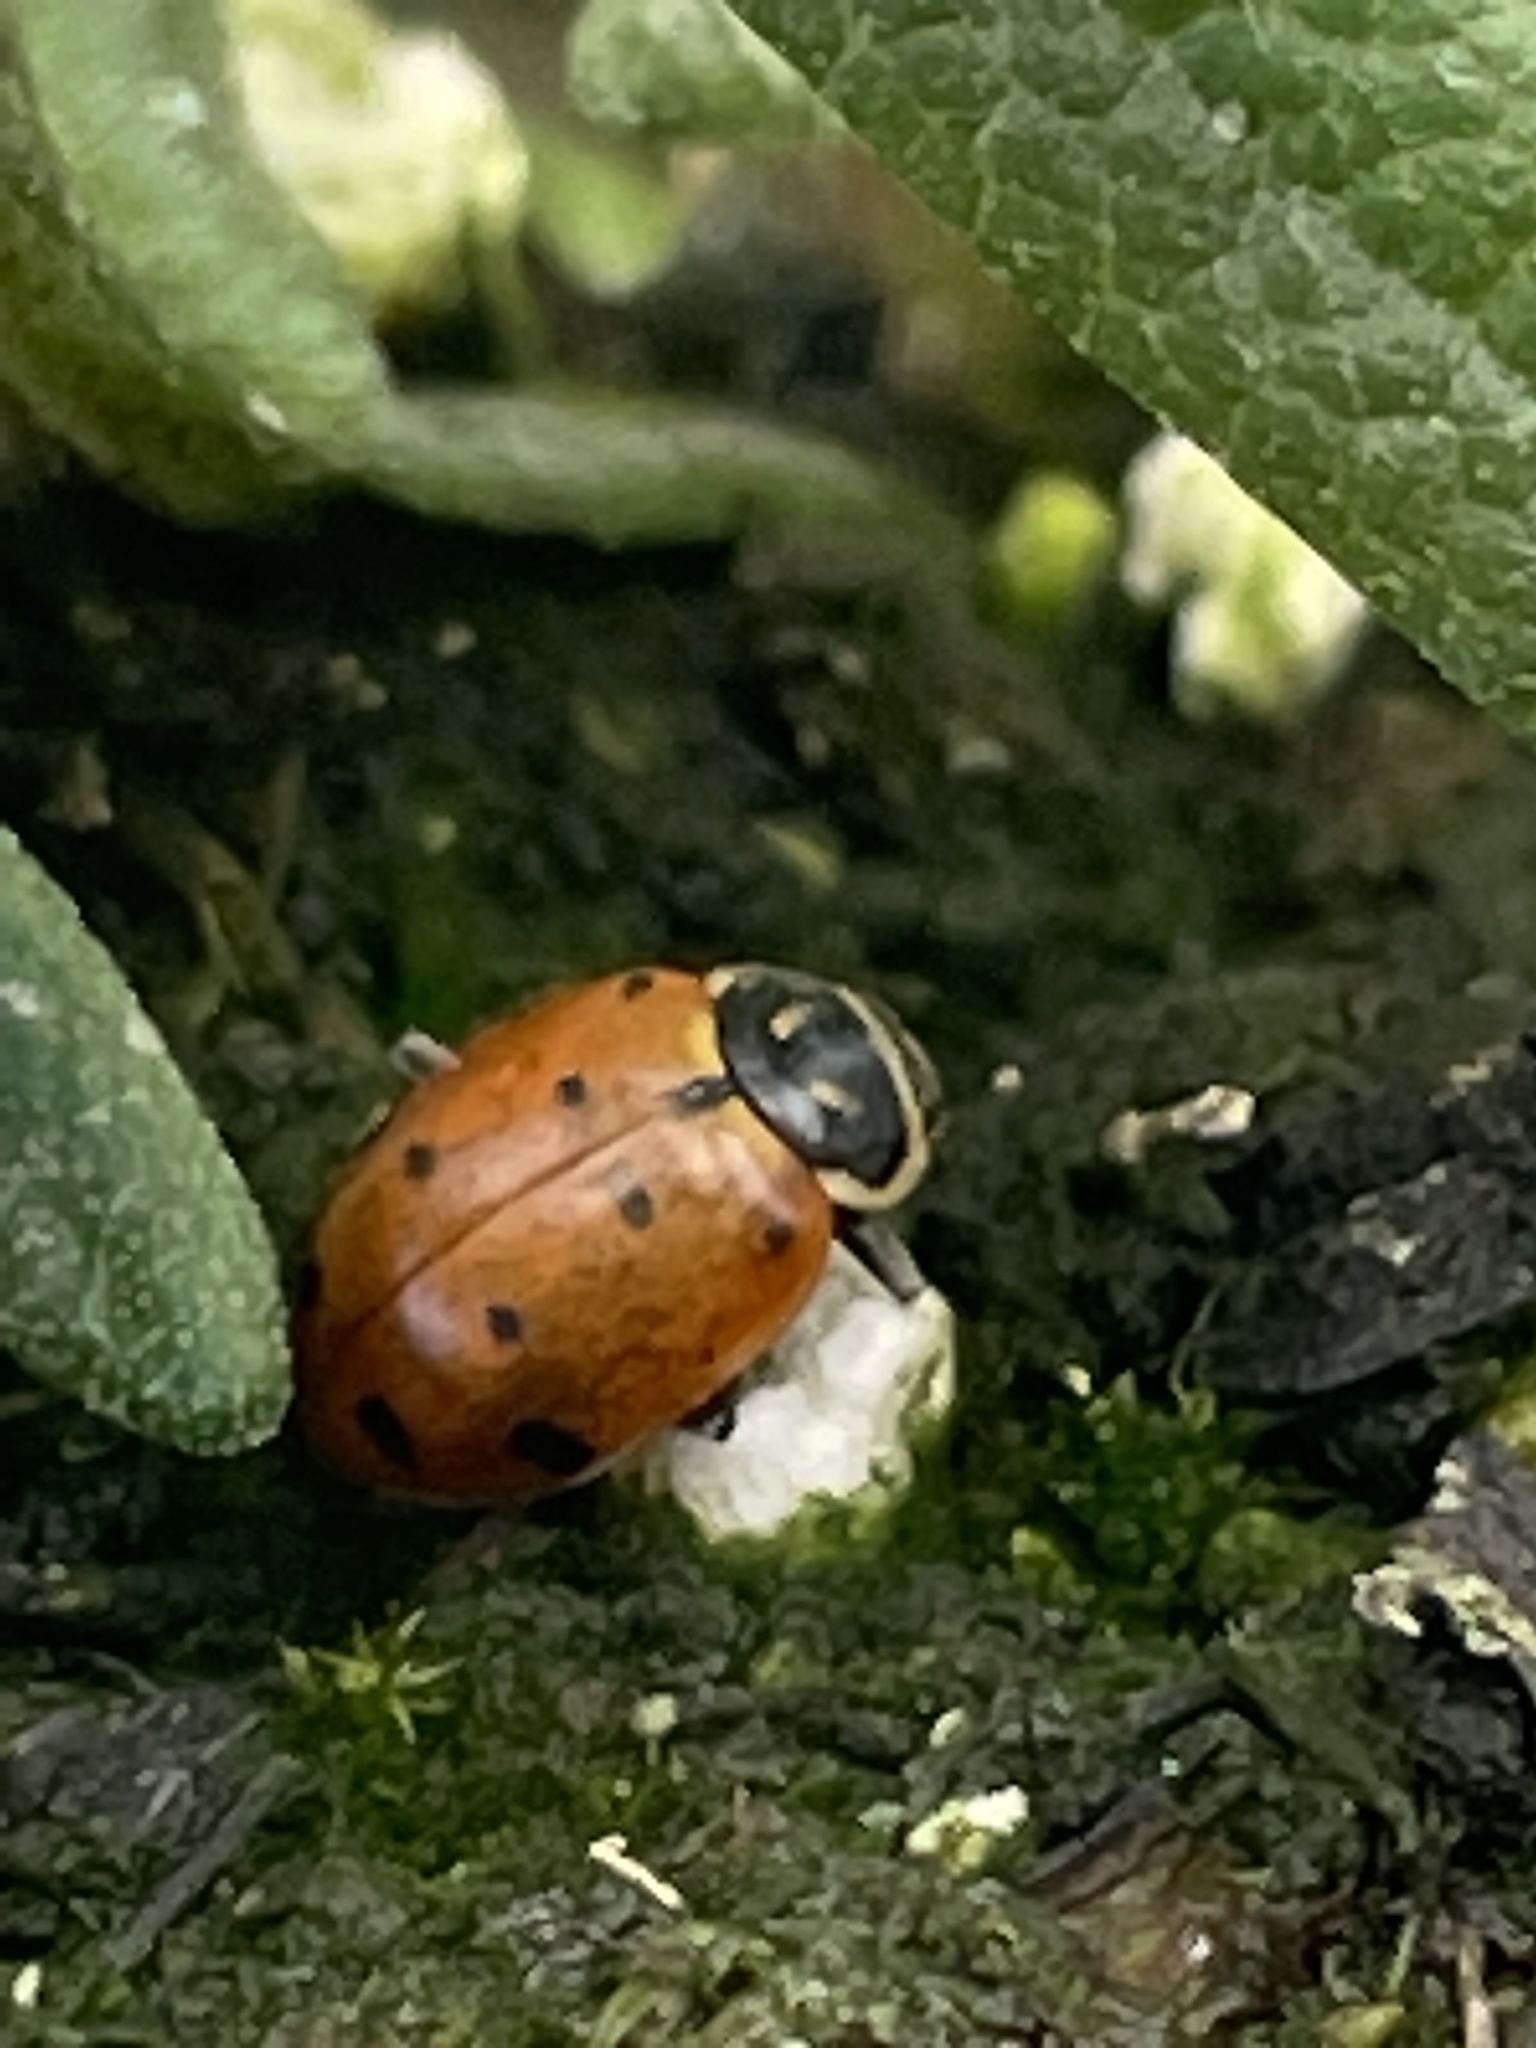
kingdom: Animalia
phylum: Arthropoda
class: Insecta
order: Coleoptera
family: Coccinellidae
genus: Hippodamia
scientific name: Hippodamia convergens
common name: Convergent lady beetle
